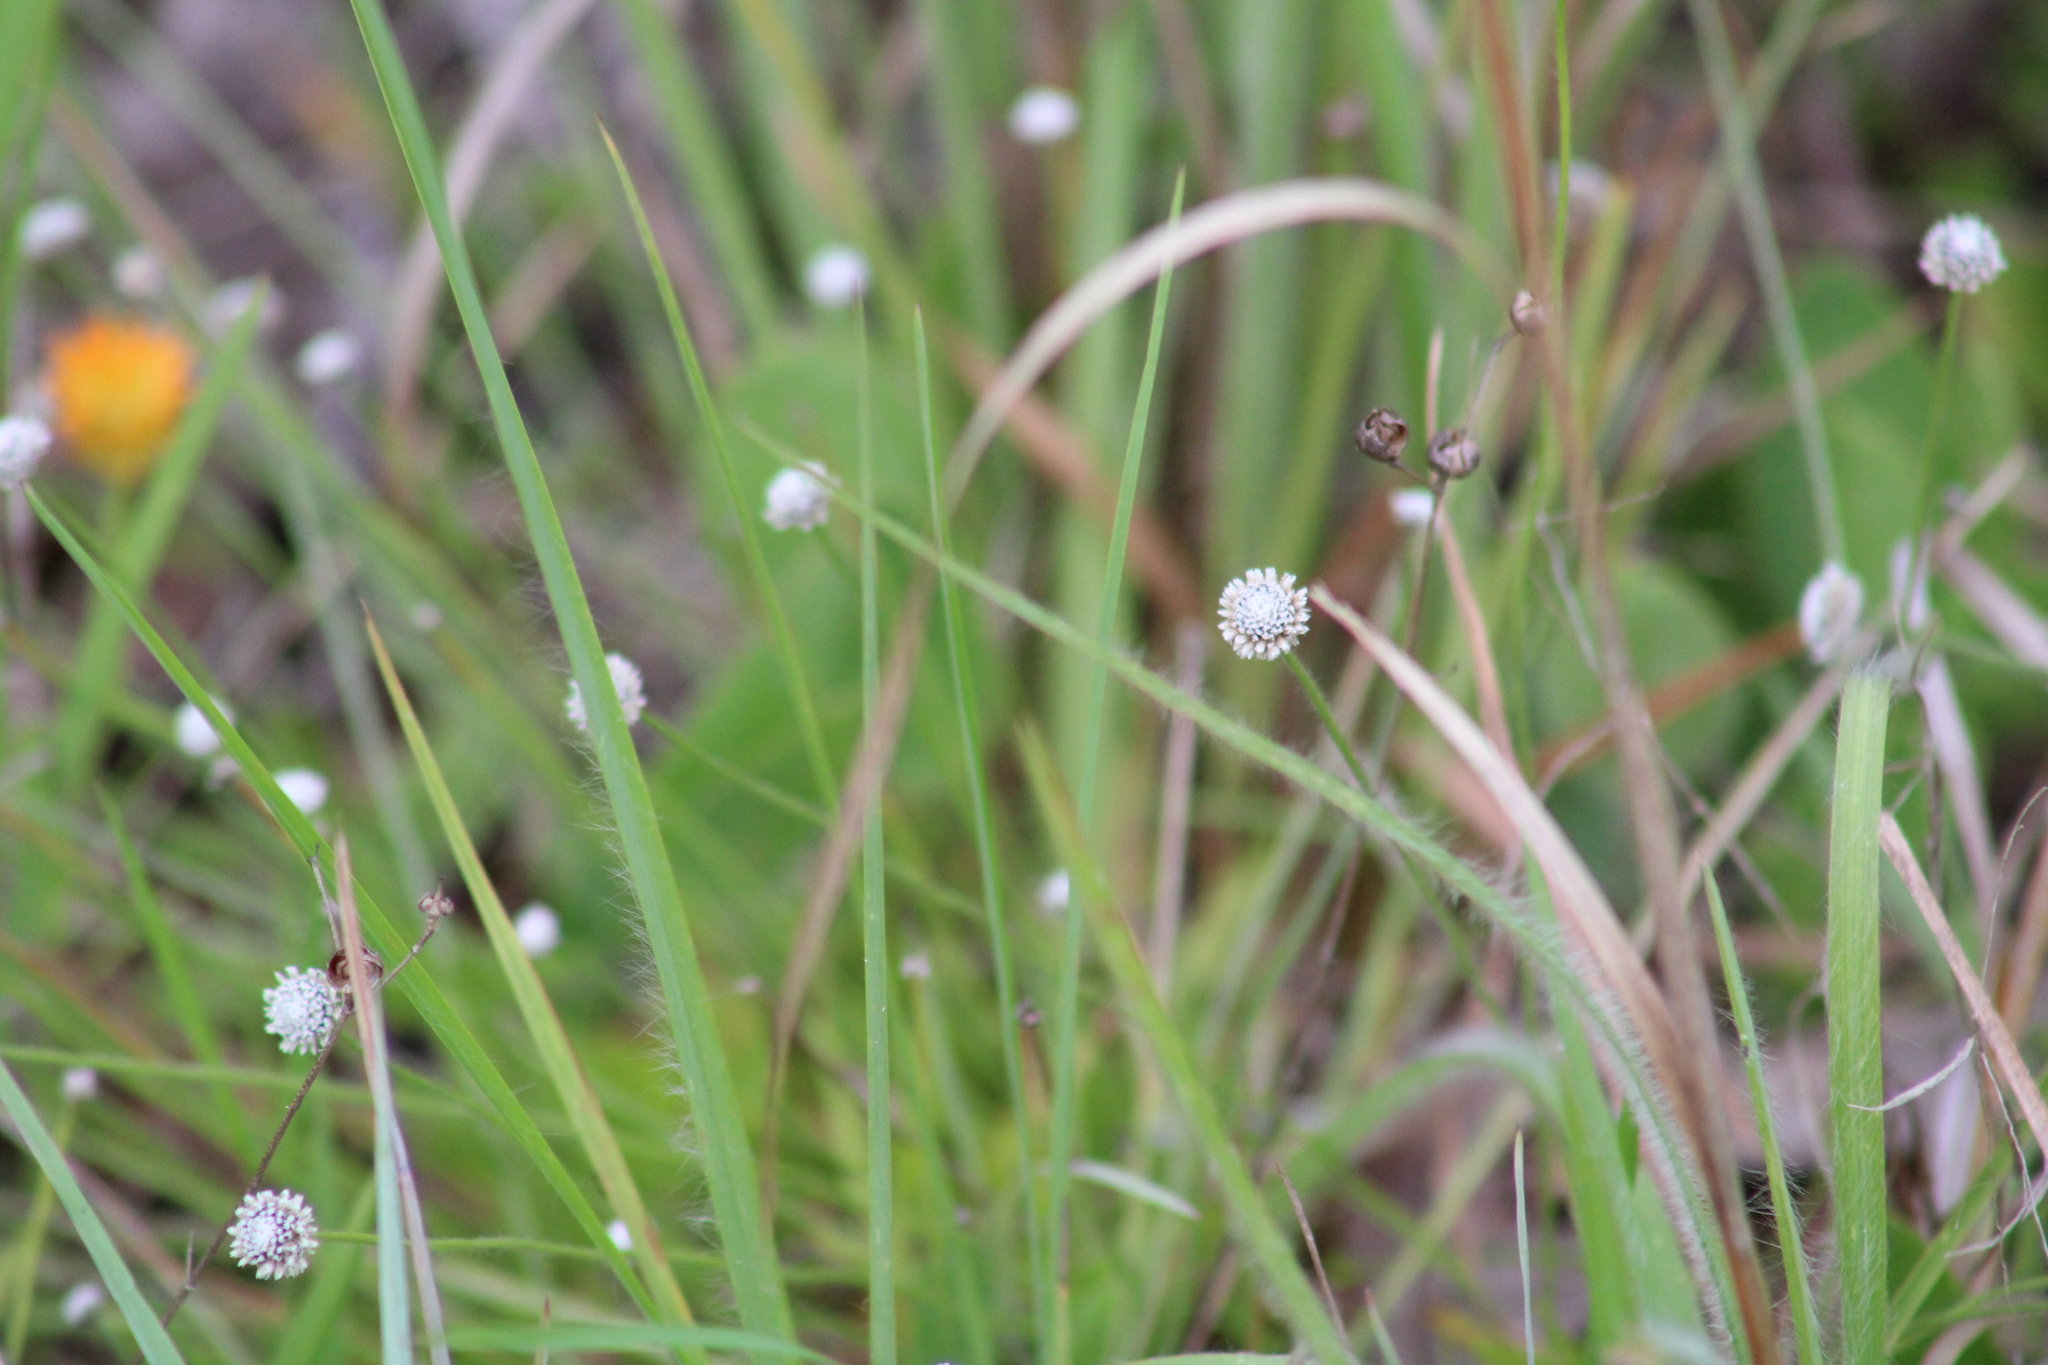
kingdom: Plantae
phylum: Tracheophyta
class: Liliopsida
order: Poales
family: Eriocaulaceae
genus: Paepalanthus
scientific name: Paepalanthus anceps
